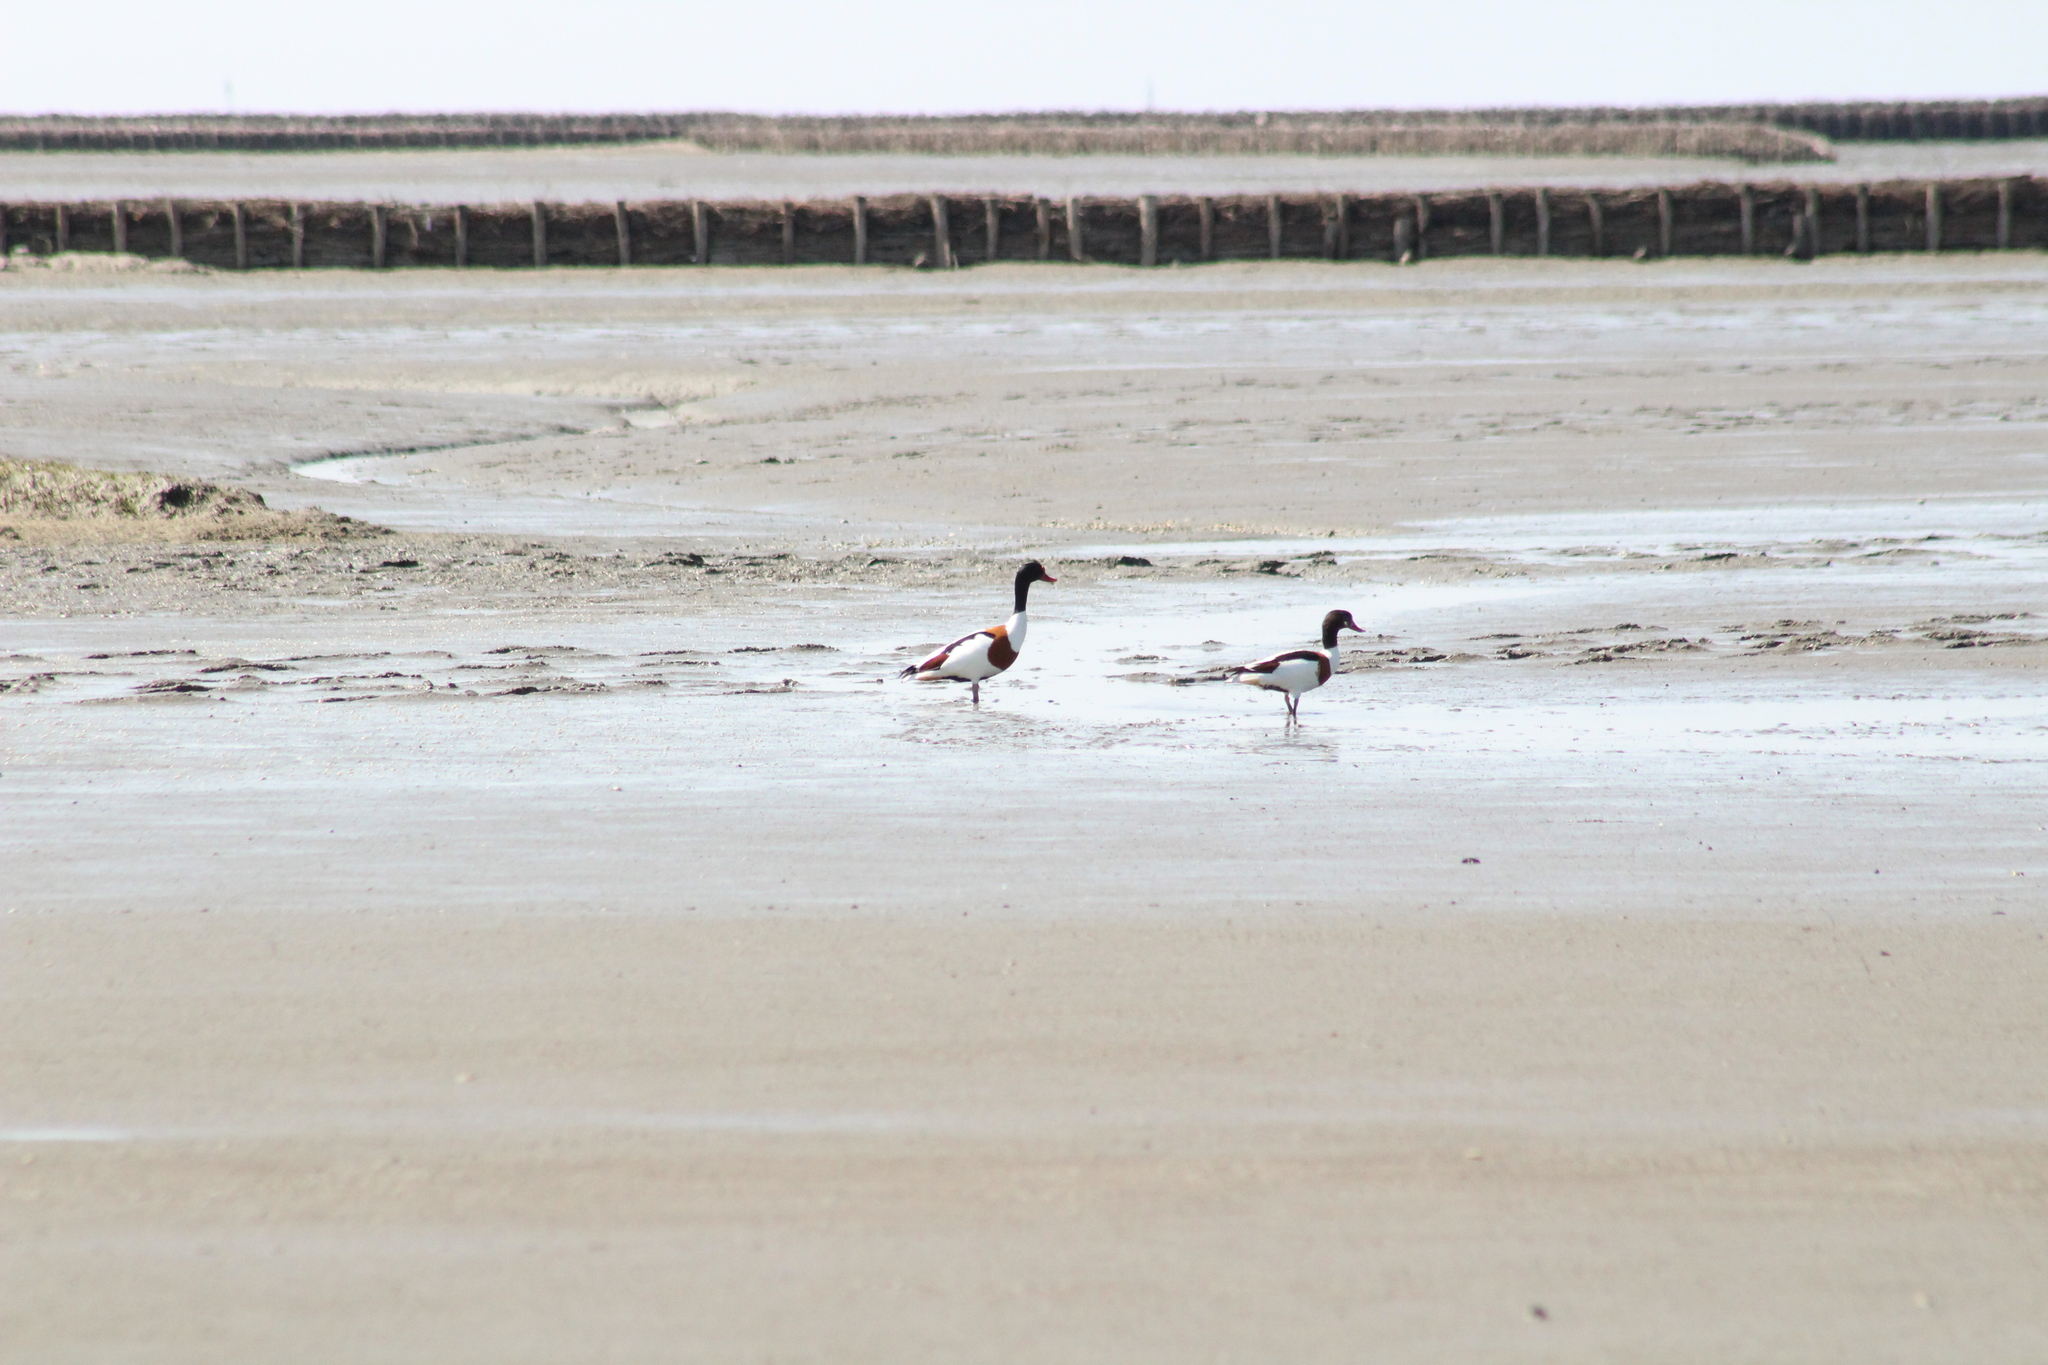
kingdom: Animalia
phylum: Chordata
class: Aves
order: Anseriformes
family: Anatidae
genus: Tadorna
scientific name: Tadorna tadorna
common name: Common shelduck
